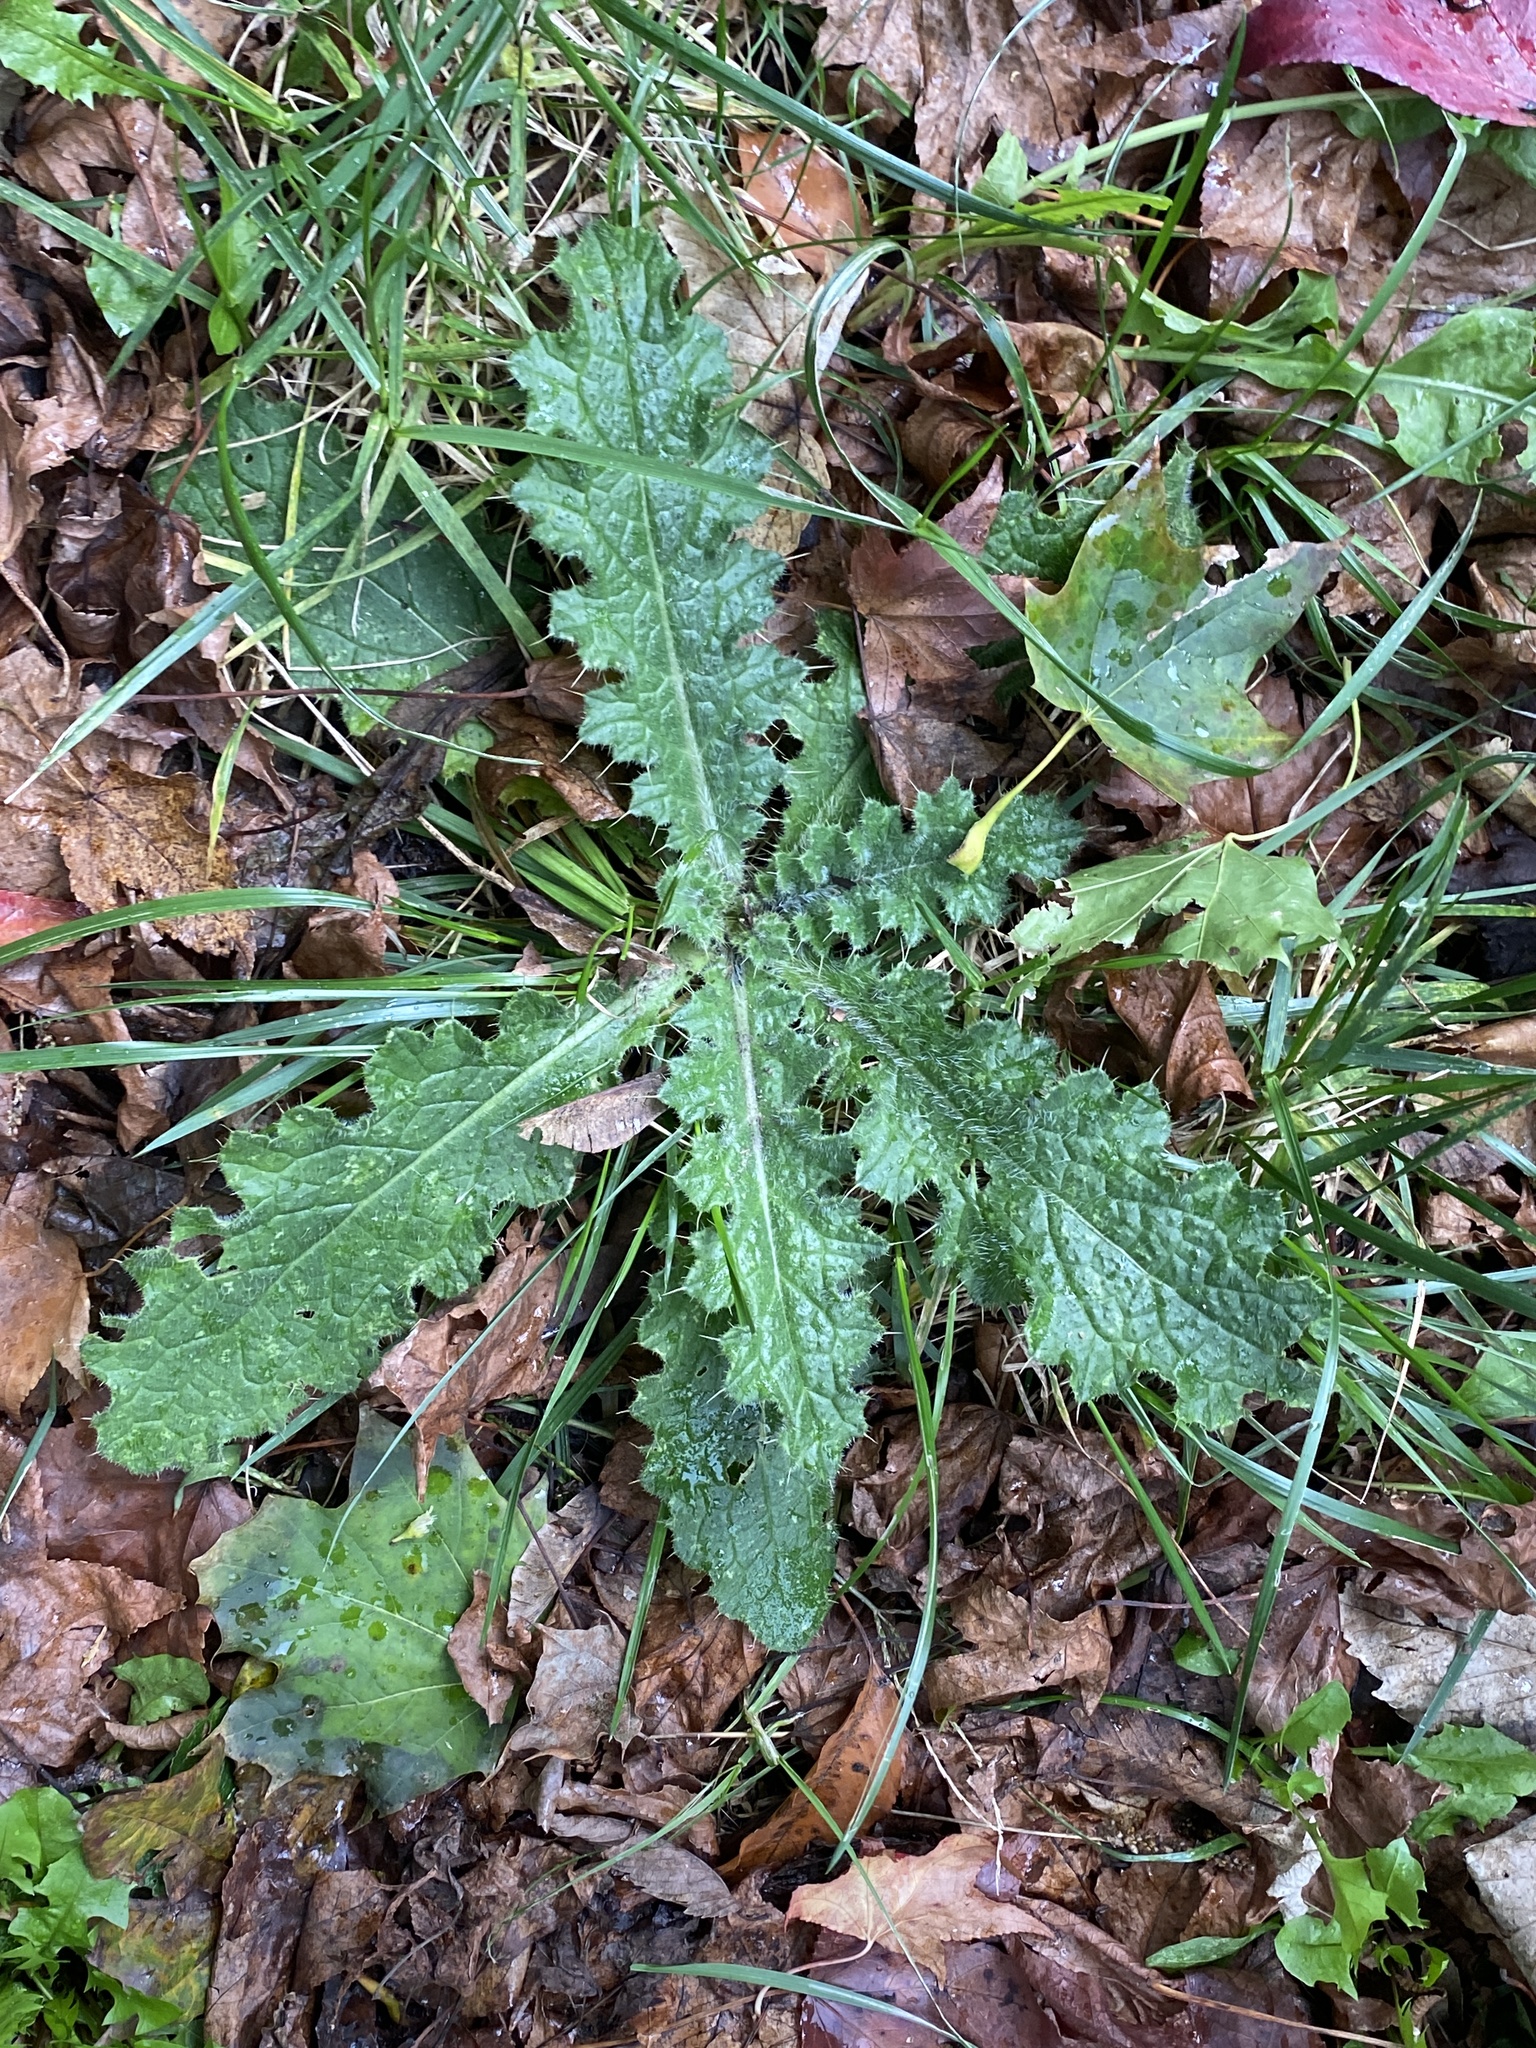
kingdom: Plantae
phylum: Tracheophyta
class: Magnoliopsida
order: Asterales
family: Asteraceae
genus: Cirsium
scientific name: Cirsium vulgare
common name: Bull thistle
